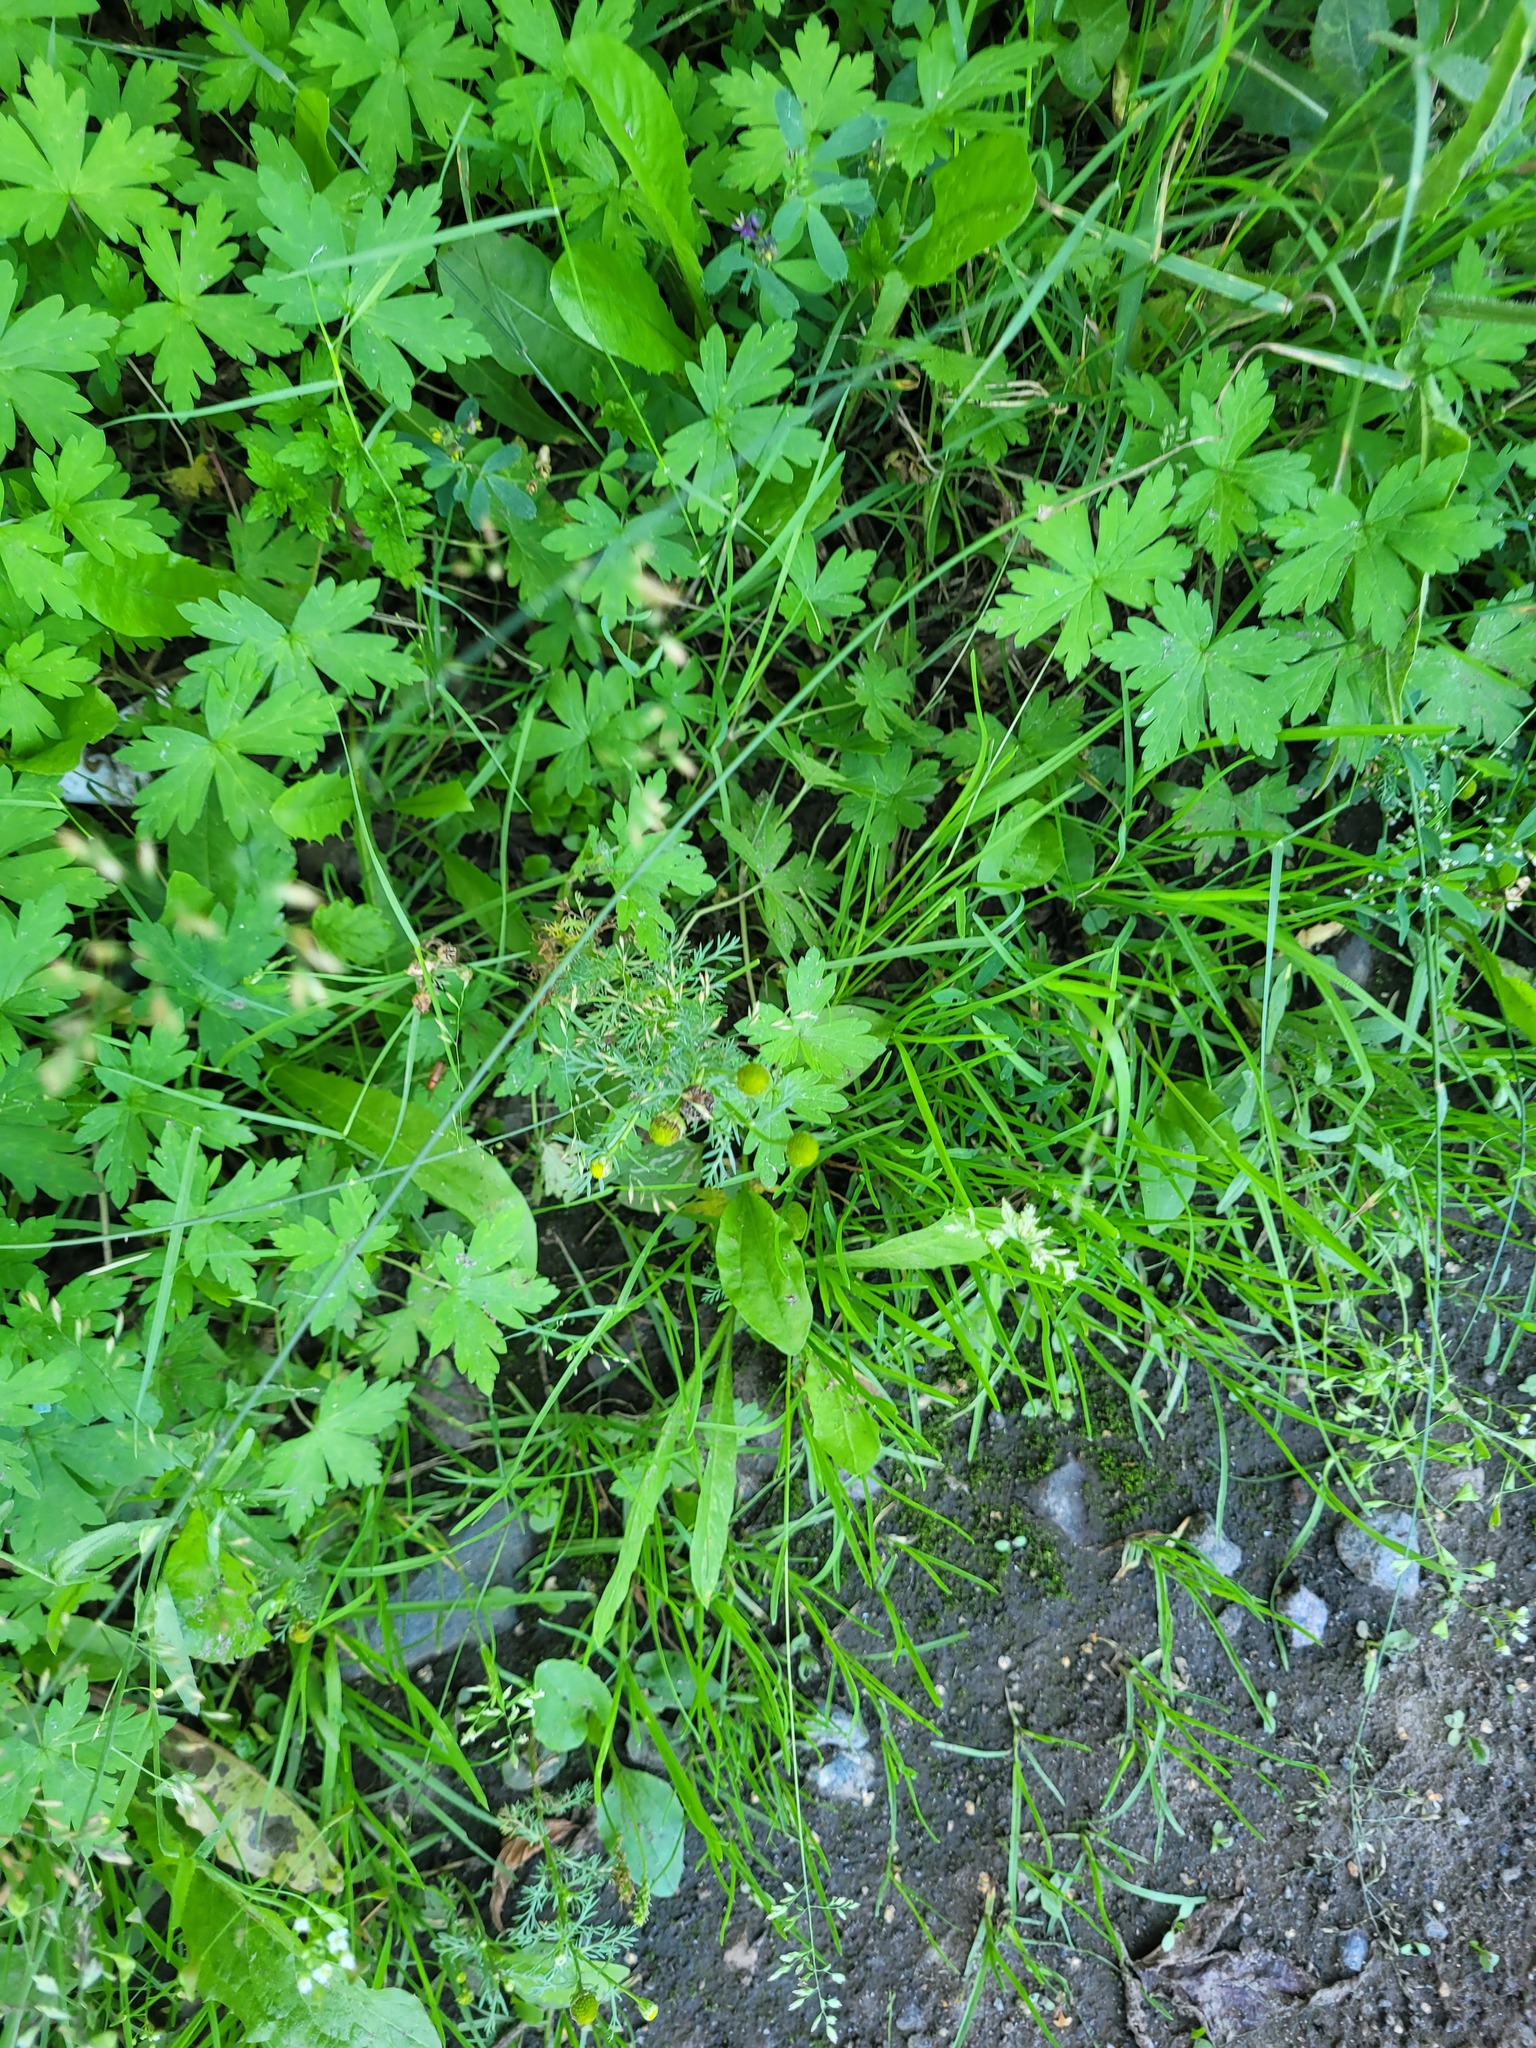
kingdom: Plantae
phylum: Tracheophyta
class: Magnoliopsida
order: Asterales
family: Asteraceae
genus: Matricaria
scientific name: Matricaria discoidea
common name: Disc mayweed
